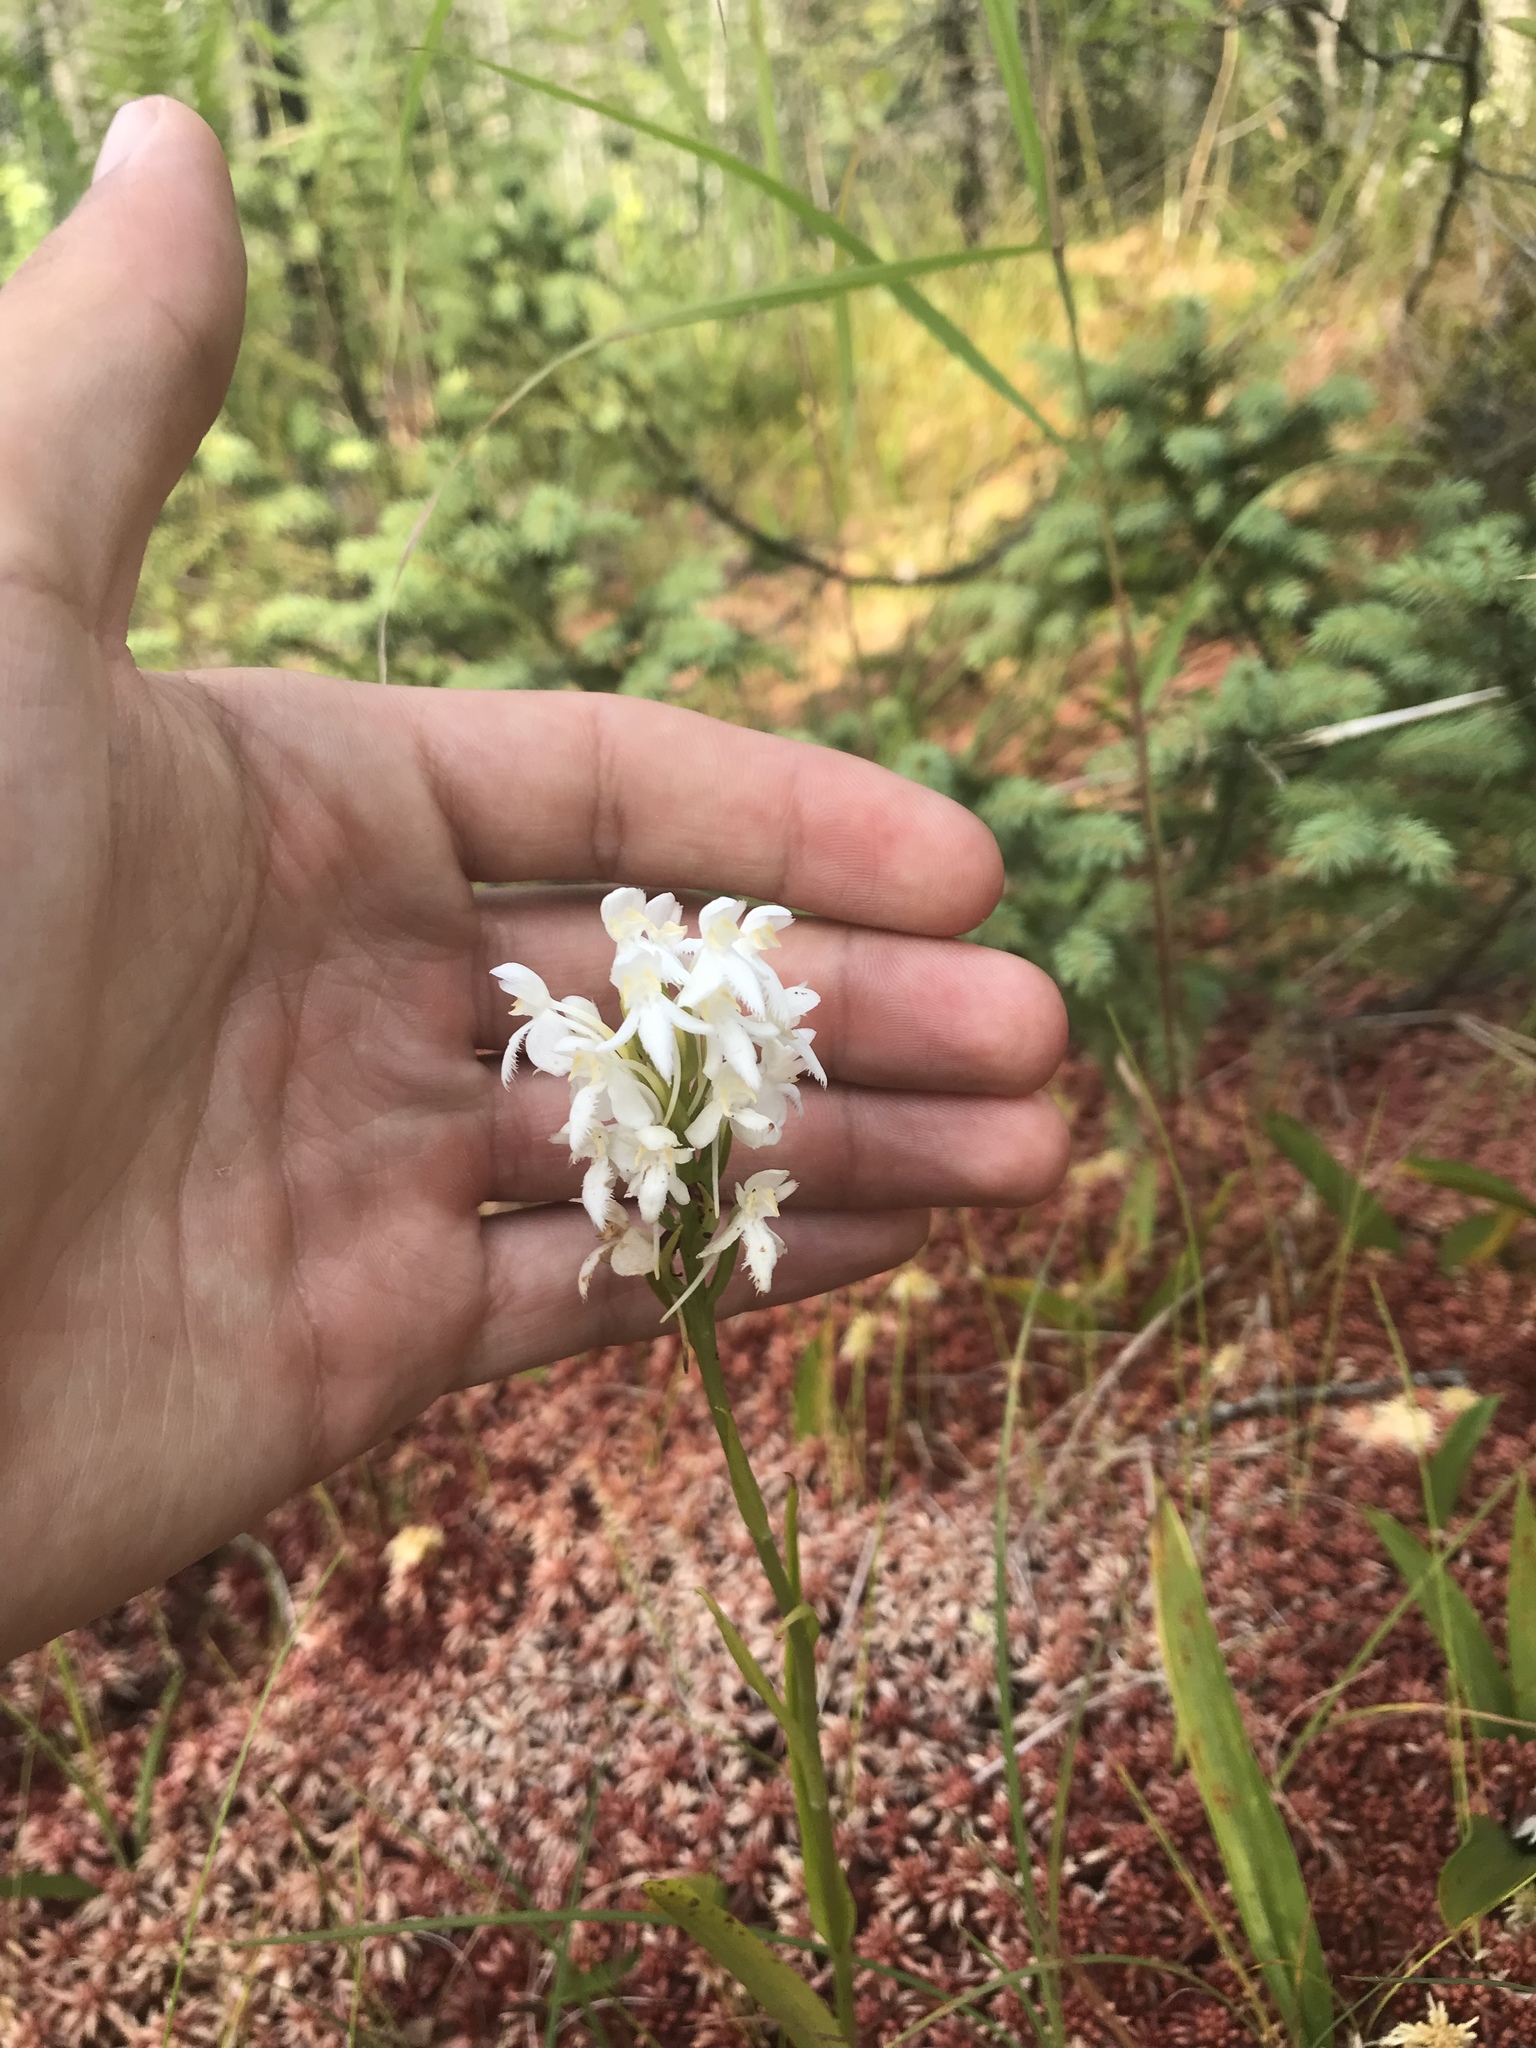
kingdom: Plantae
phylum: Tracheophyta
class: Liliopsida
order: Asparagales
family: Orchidaceae
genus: Platanthera
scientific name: Platanthera blephariglottis
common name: White fringed orchid
